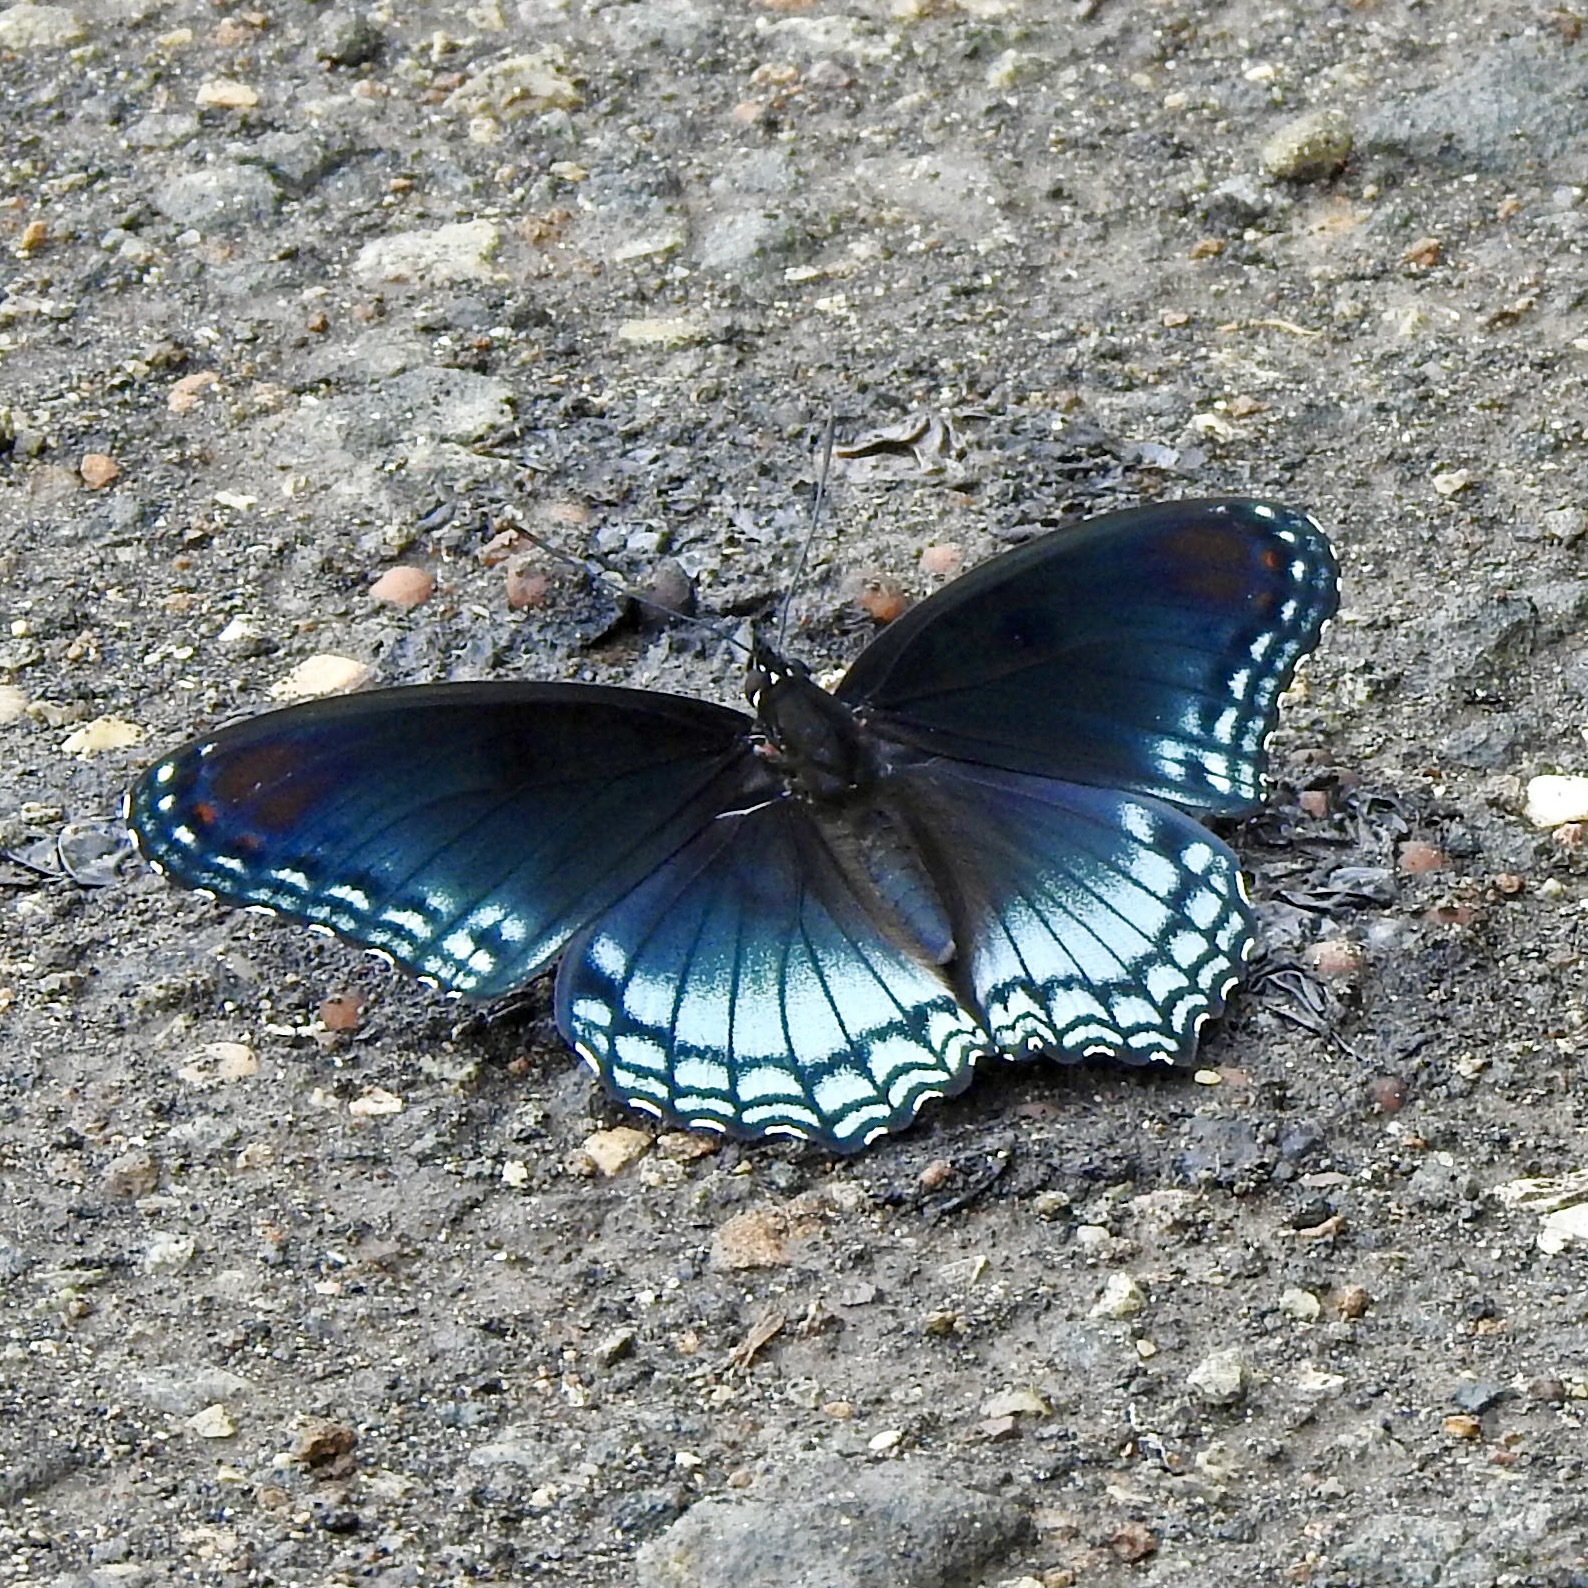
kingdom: Animalia
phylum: Arthropoda
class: Insecta
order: Lepidoptera
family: Nymphalidae
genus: Limenitis
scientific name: Limenitis arthemis
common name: Red-spotted admiral
